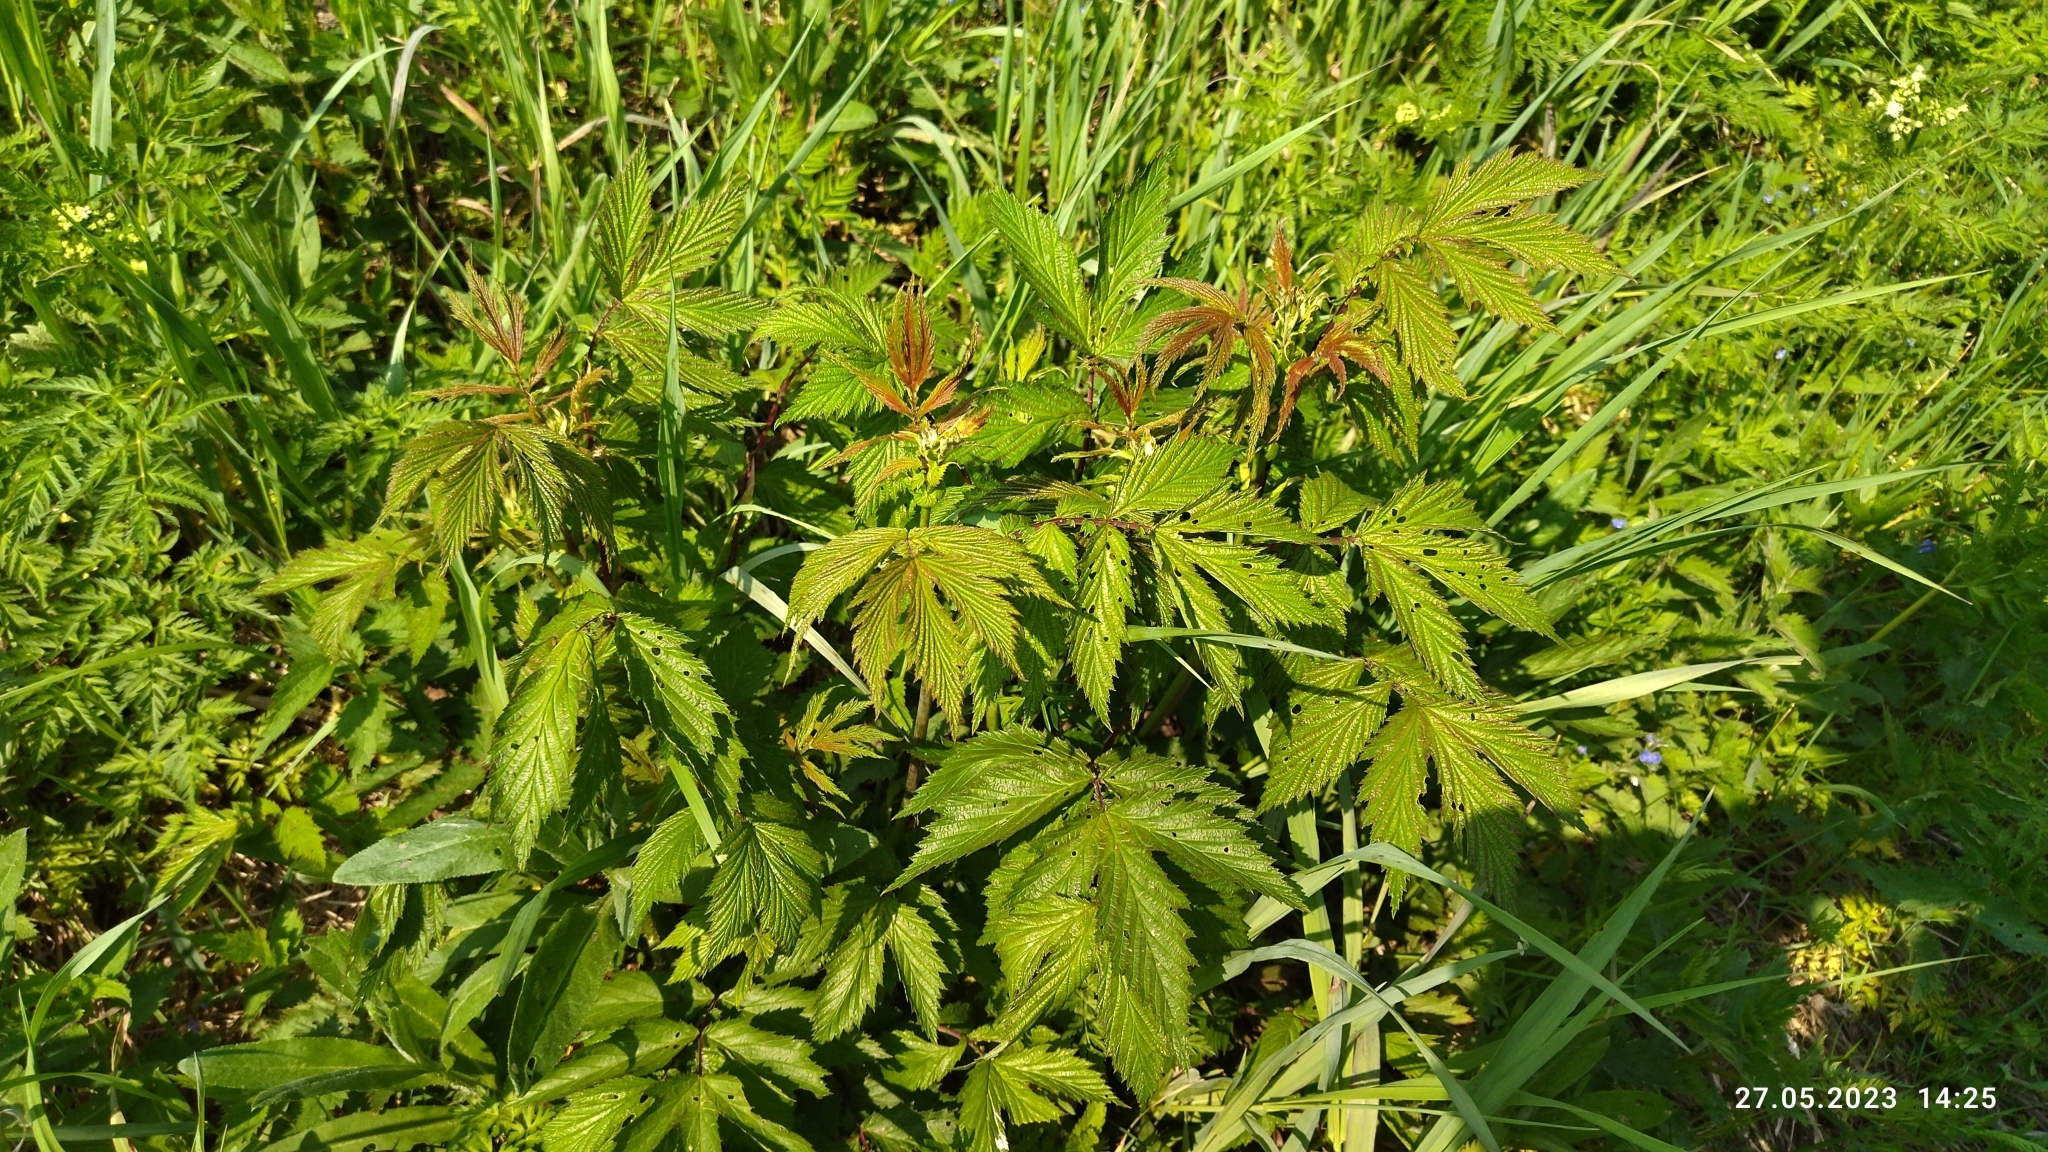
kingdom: Plantae
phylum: Tracheophyta
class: Magnoliopsida
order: Rosales
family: Rosaceae
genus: Filipendula
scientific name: Filipendula ulmaria
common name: Meadowsweet
